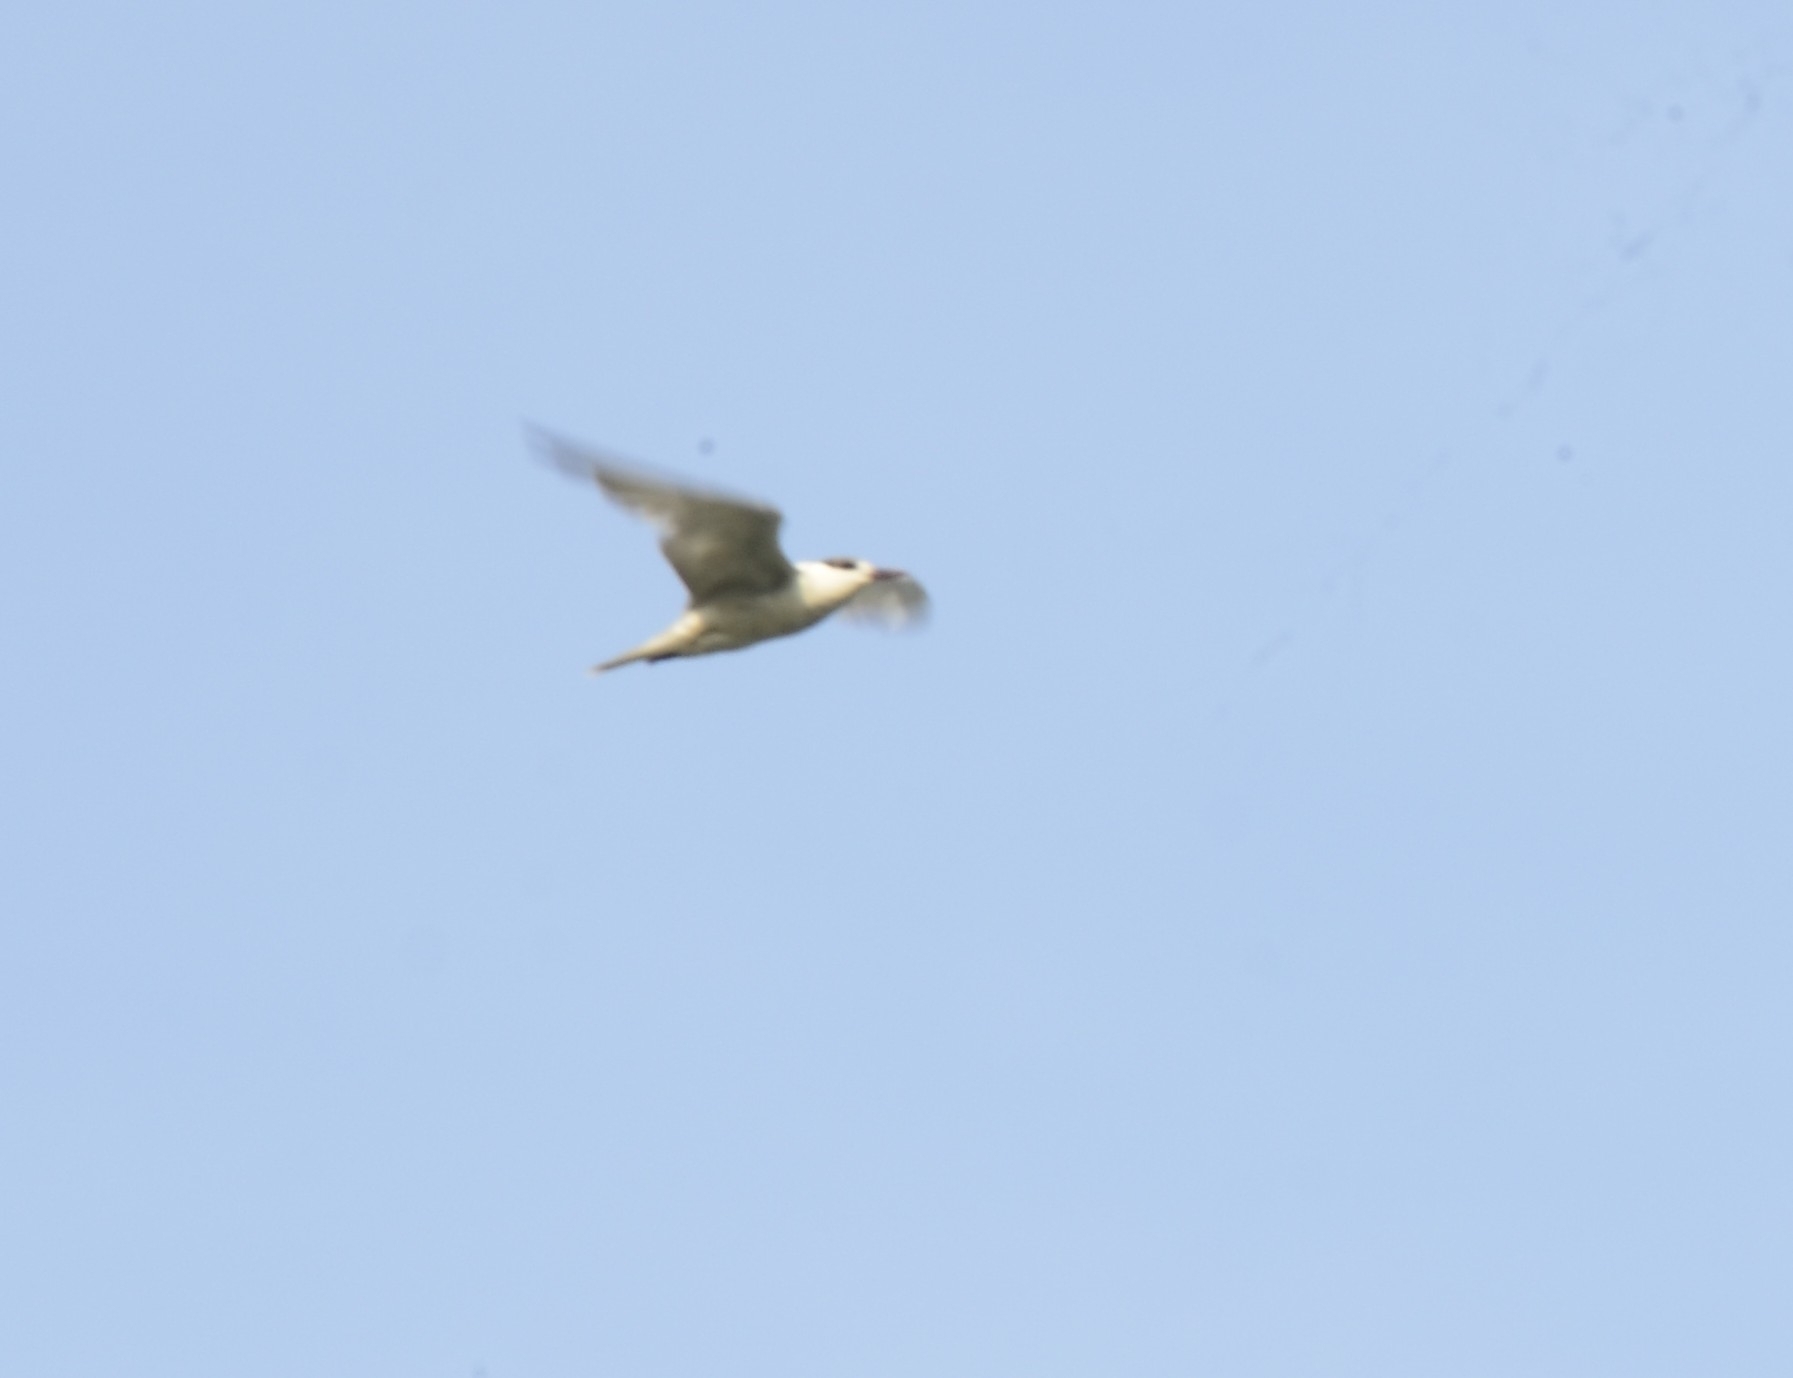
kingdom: Animalia
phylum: Chordata
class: Aves
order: Charadriiformes
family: Laridae
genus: Chlidonias
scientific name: Chlidonias hybrida
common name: Whiskered tern
